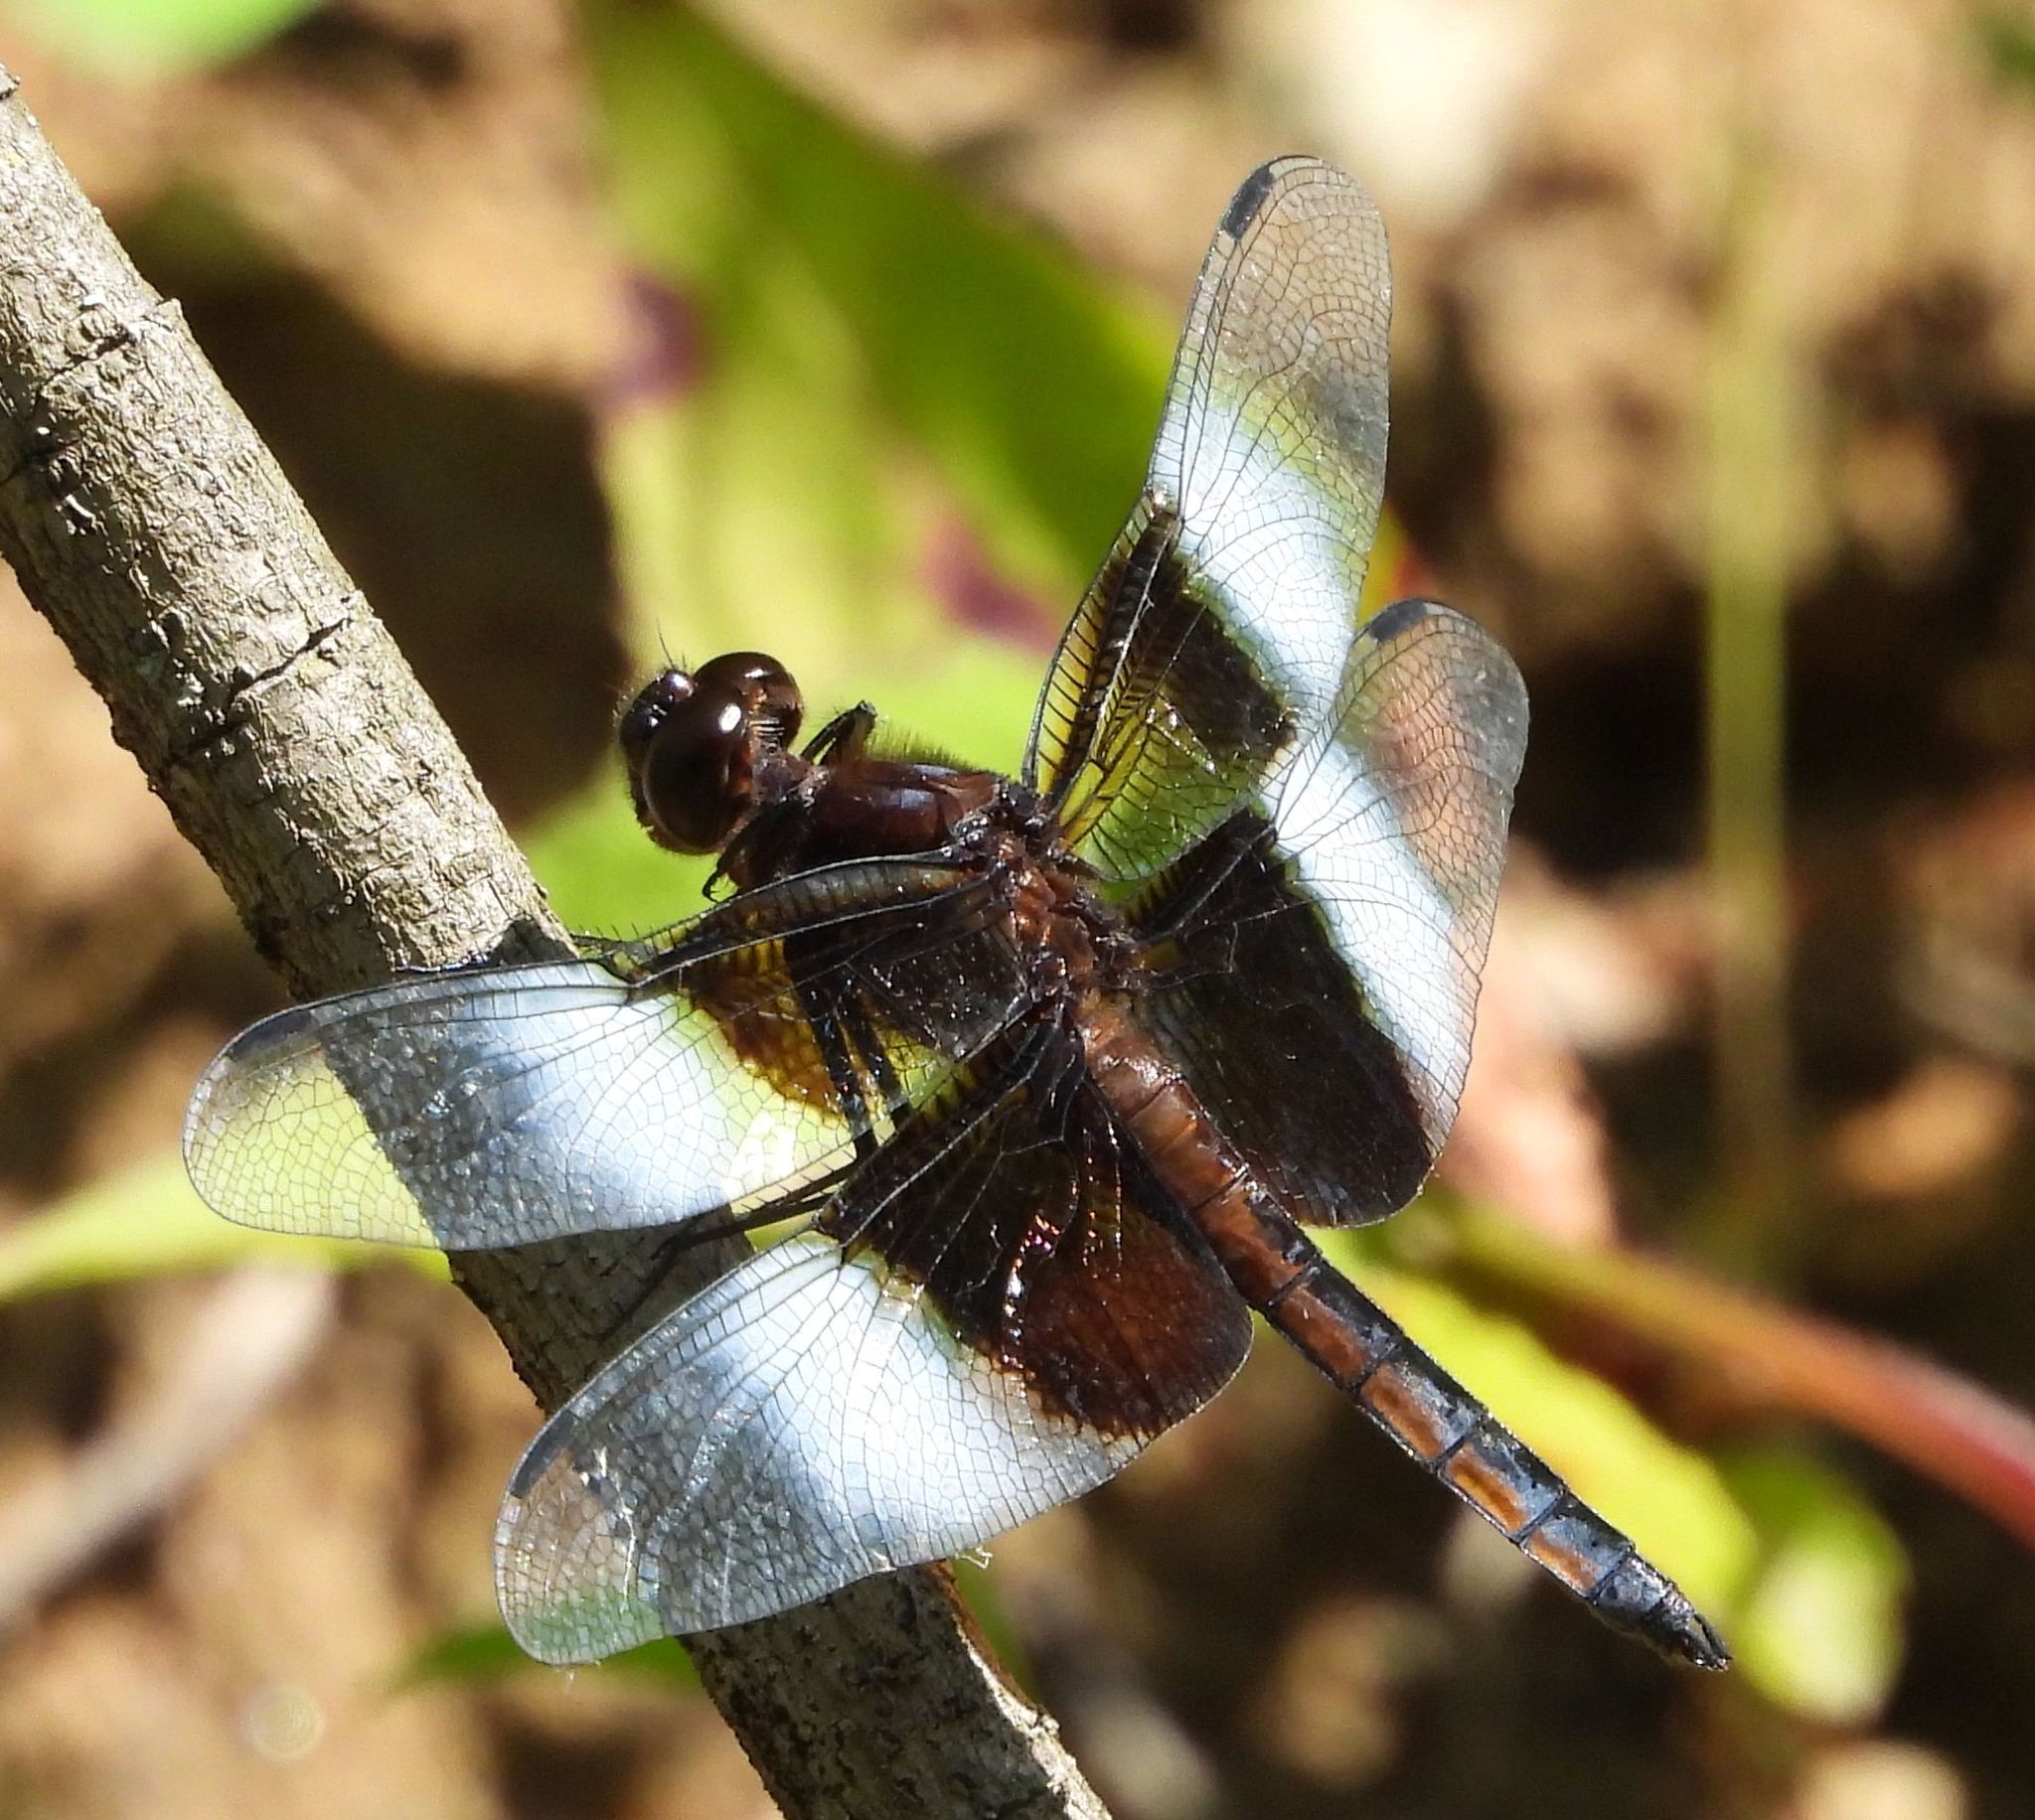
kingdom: Animalia
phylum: Arthropoda
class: Insecta
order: Odonata
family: Libellulidae
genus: Libellula
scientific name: Libellula luctuosa
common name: Widow skimmer
